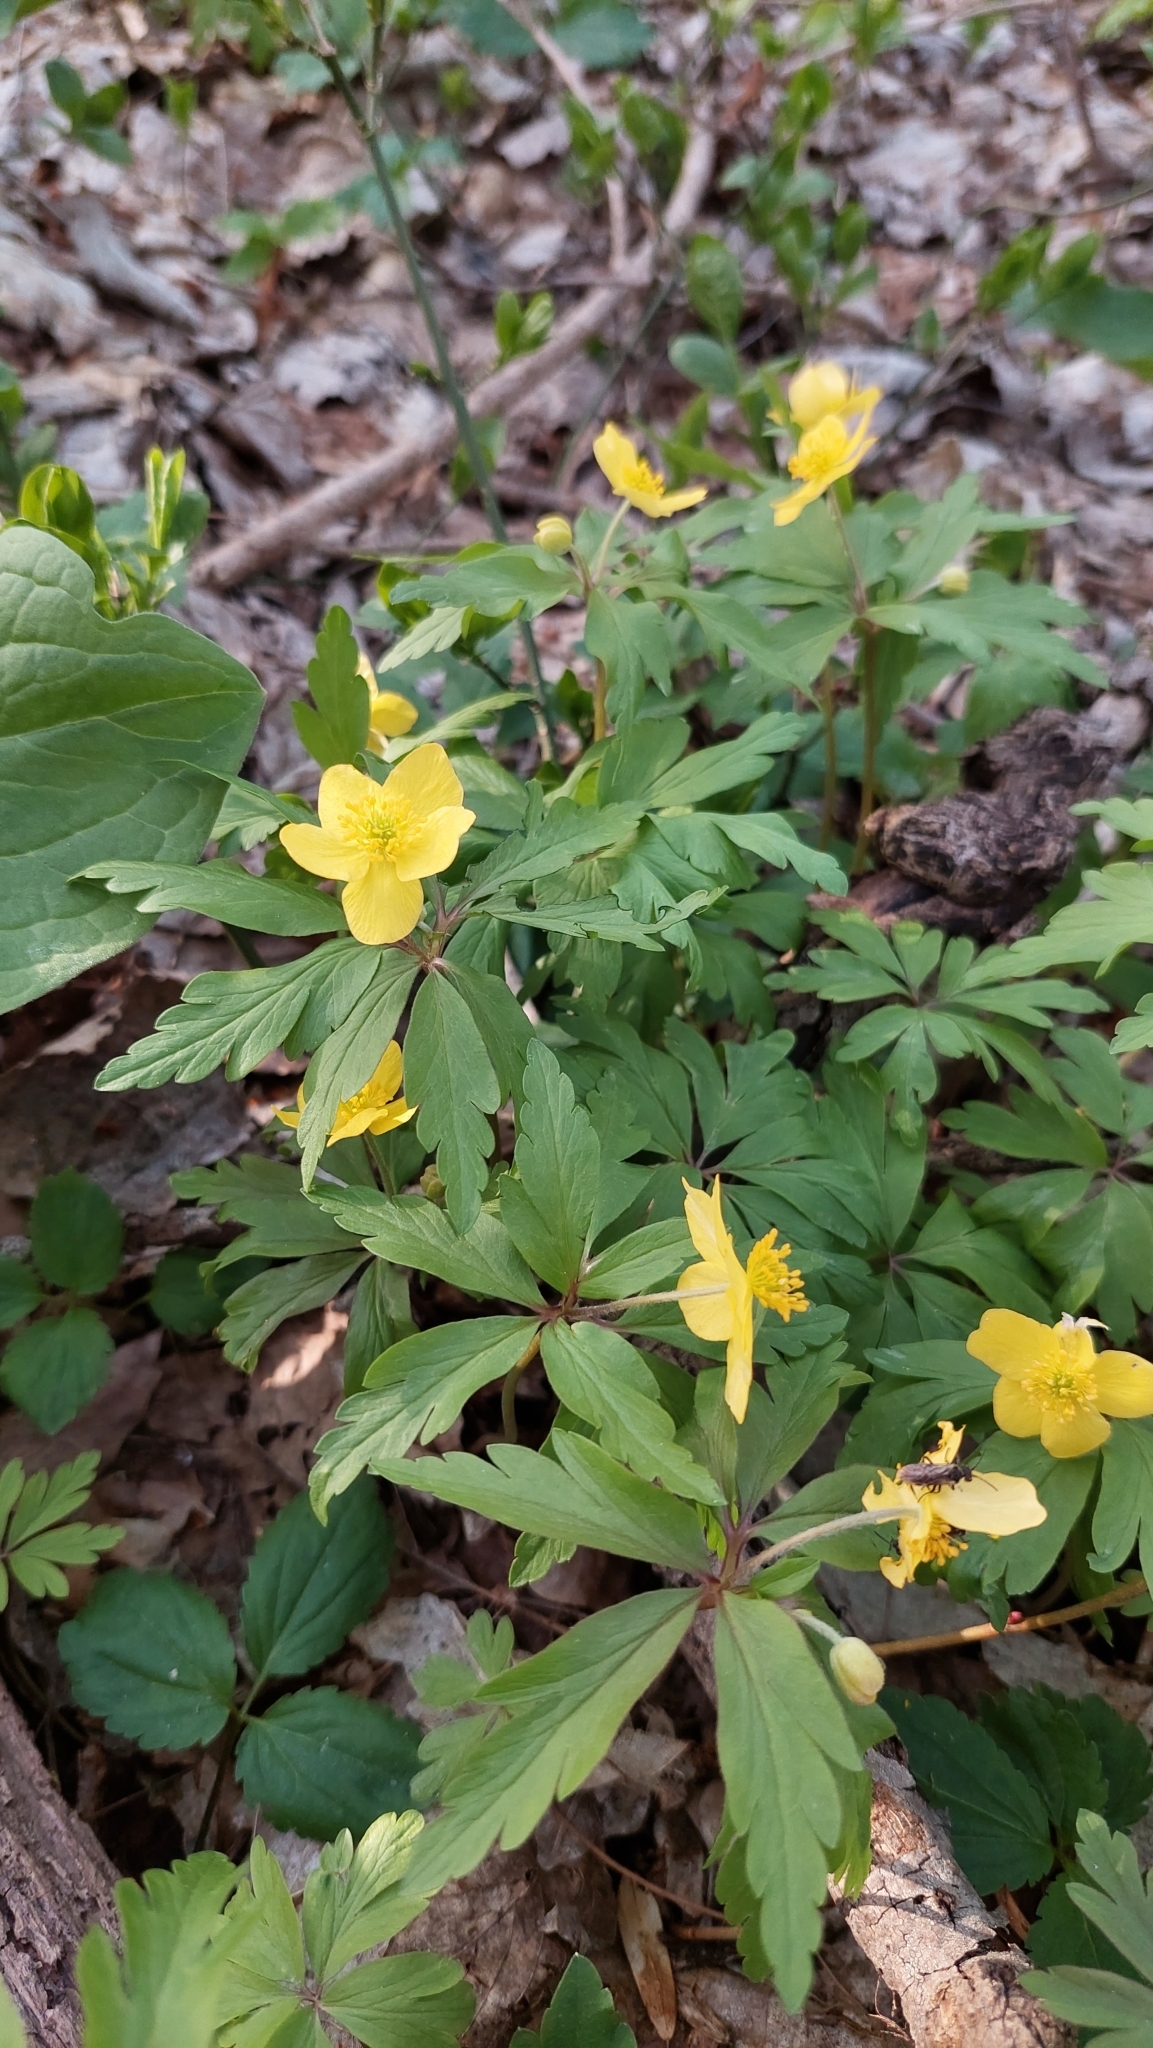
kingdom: Plantae
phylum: Tracheophyta
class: Magnoliopsida
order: Ranunculales
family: Ranunculaceae
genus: Anemone
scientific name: Anemone ranunculoides
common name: Yellow anemone
